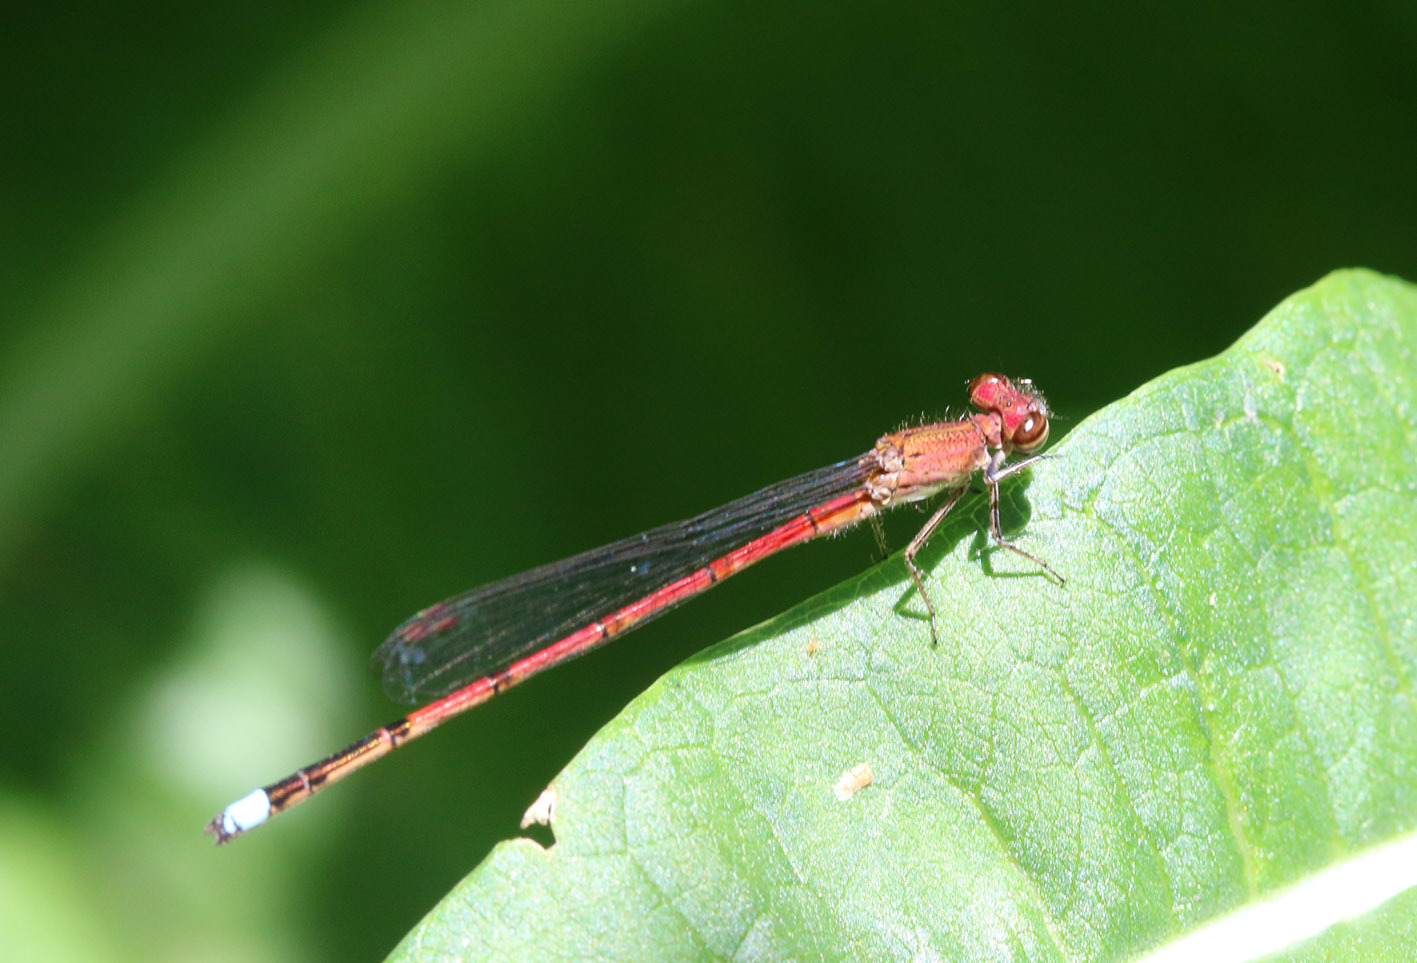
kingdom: Animalia
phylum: Arthropoda
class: Insecta
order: Odonata
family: Coenagrionidae
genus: Oxyagrion
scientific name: Oxyagrion terminale
